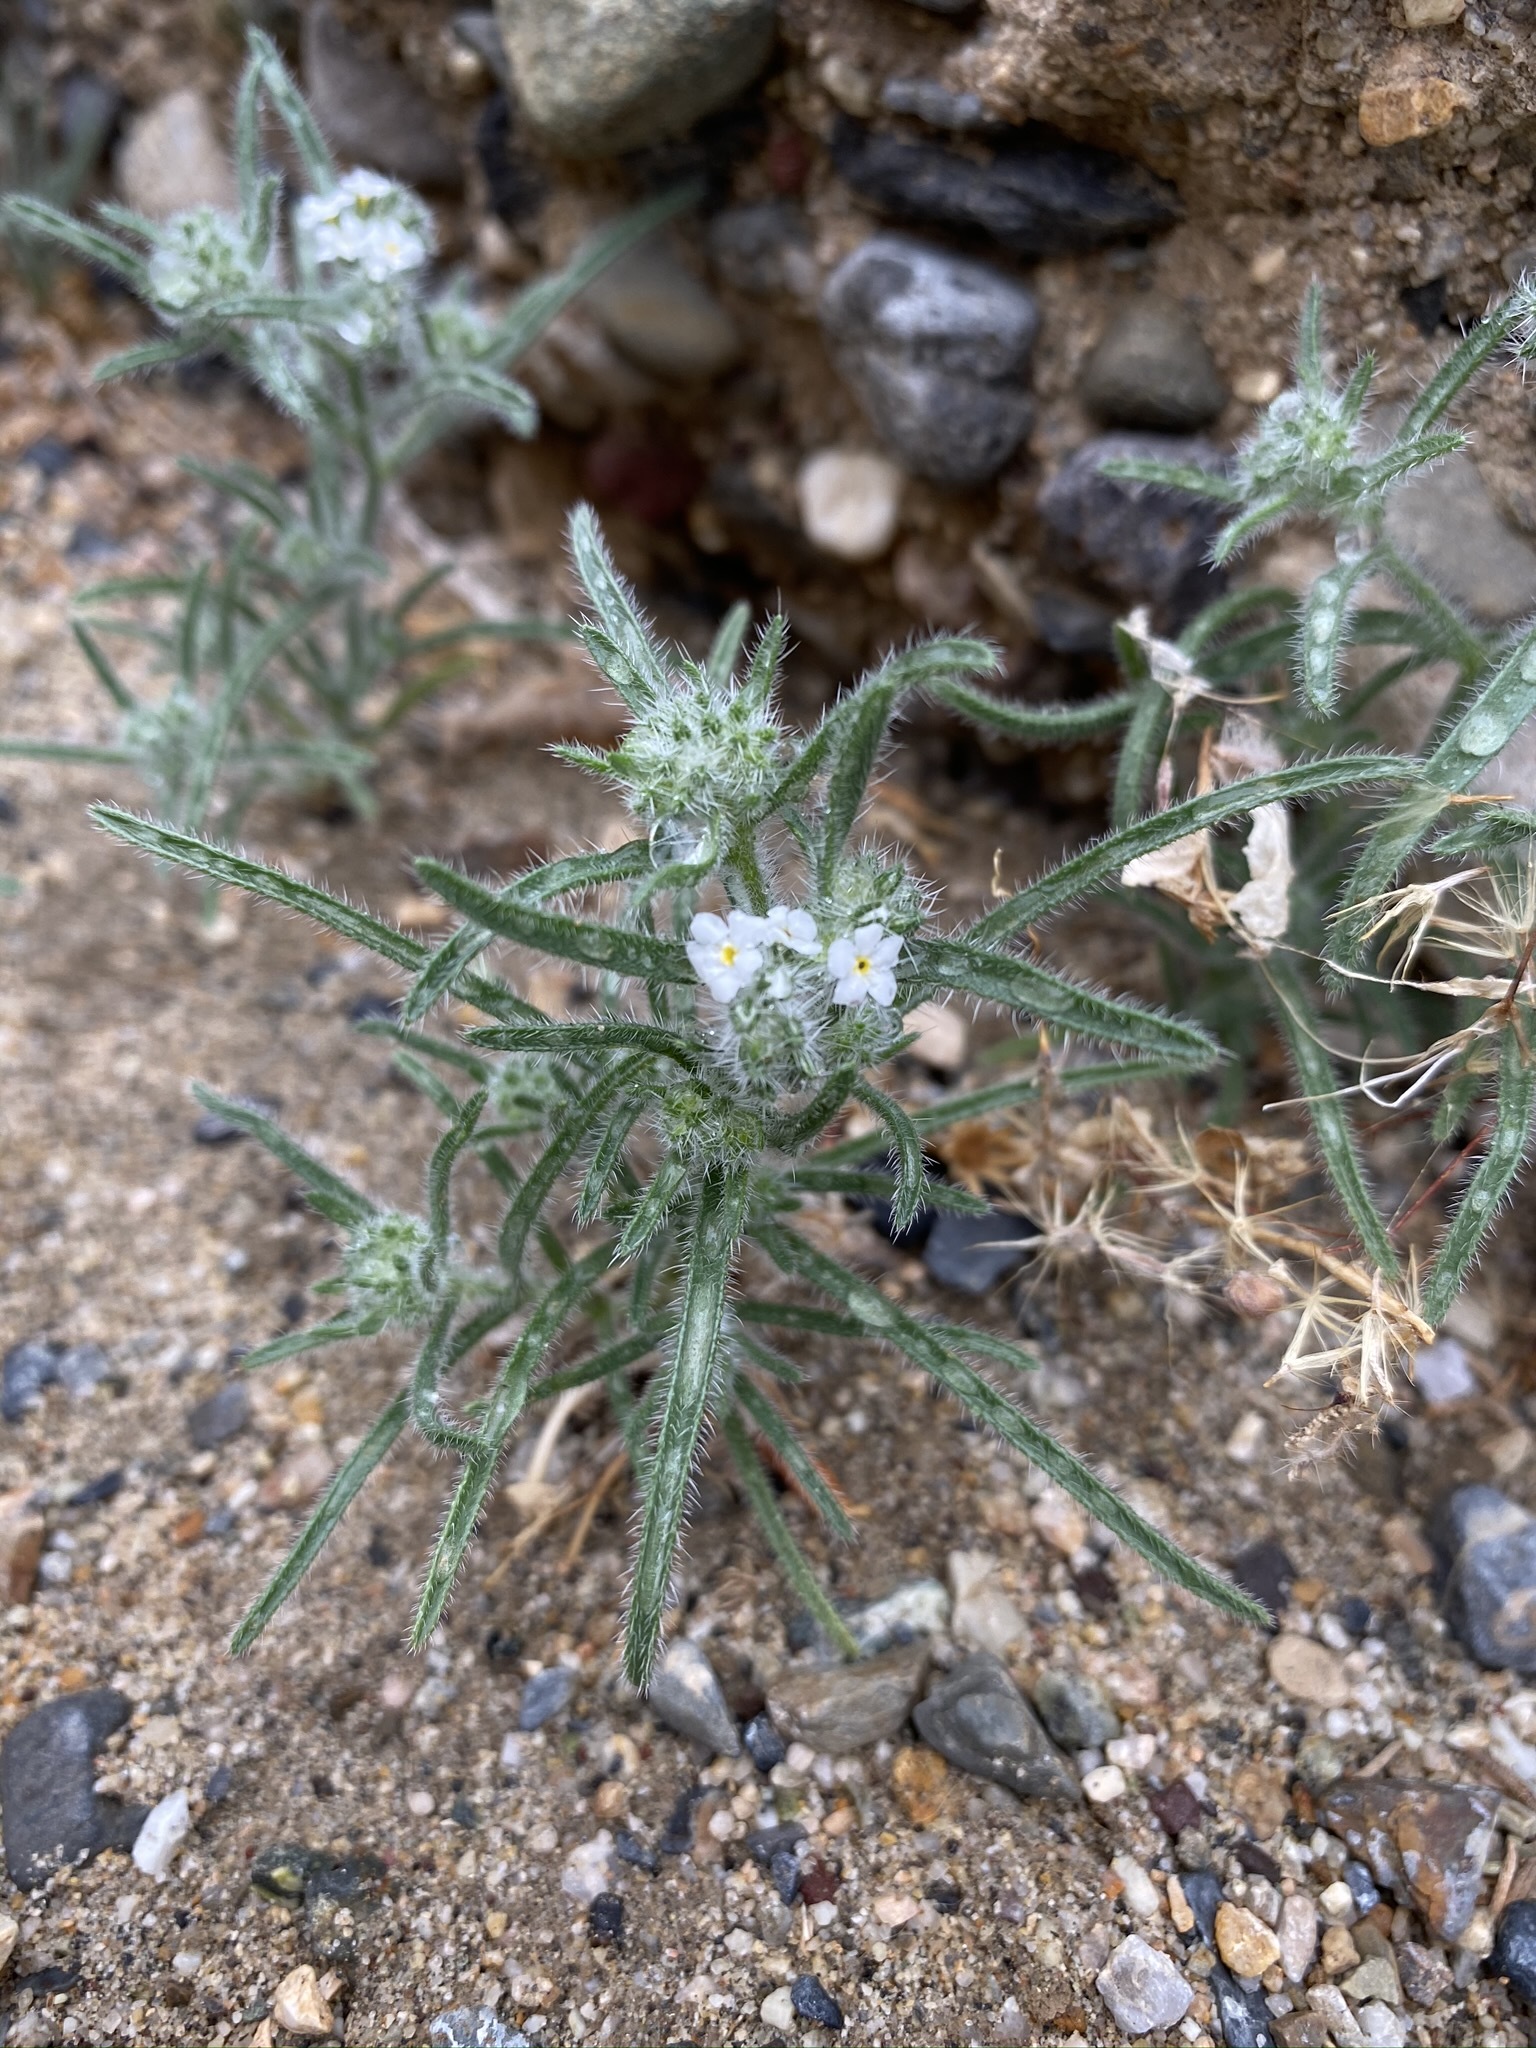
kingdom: Plantae
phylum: Tracheophyta
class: Magnoliopsida
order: Boraginales
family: Boraginaceae
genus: Johnstonella
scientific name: Johnstonella angustifolia
